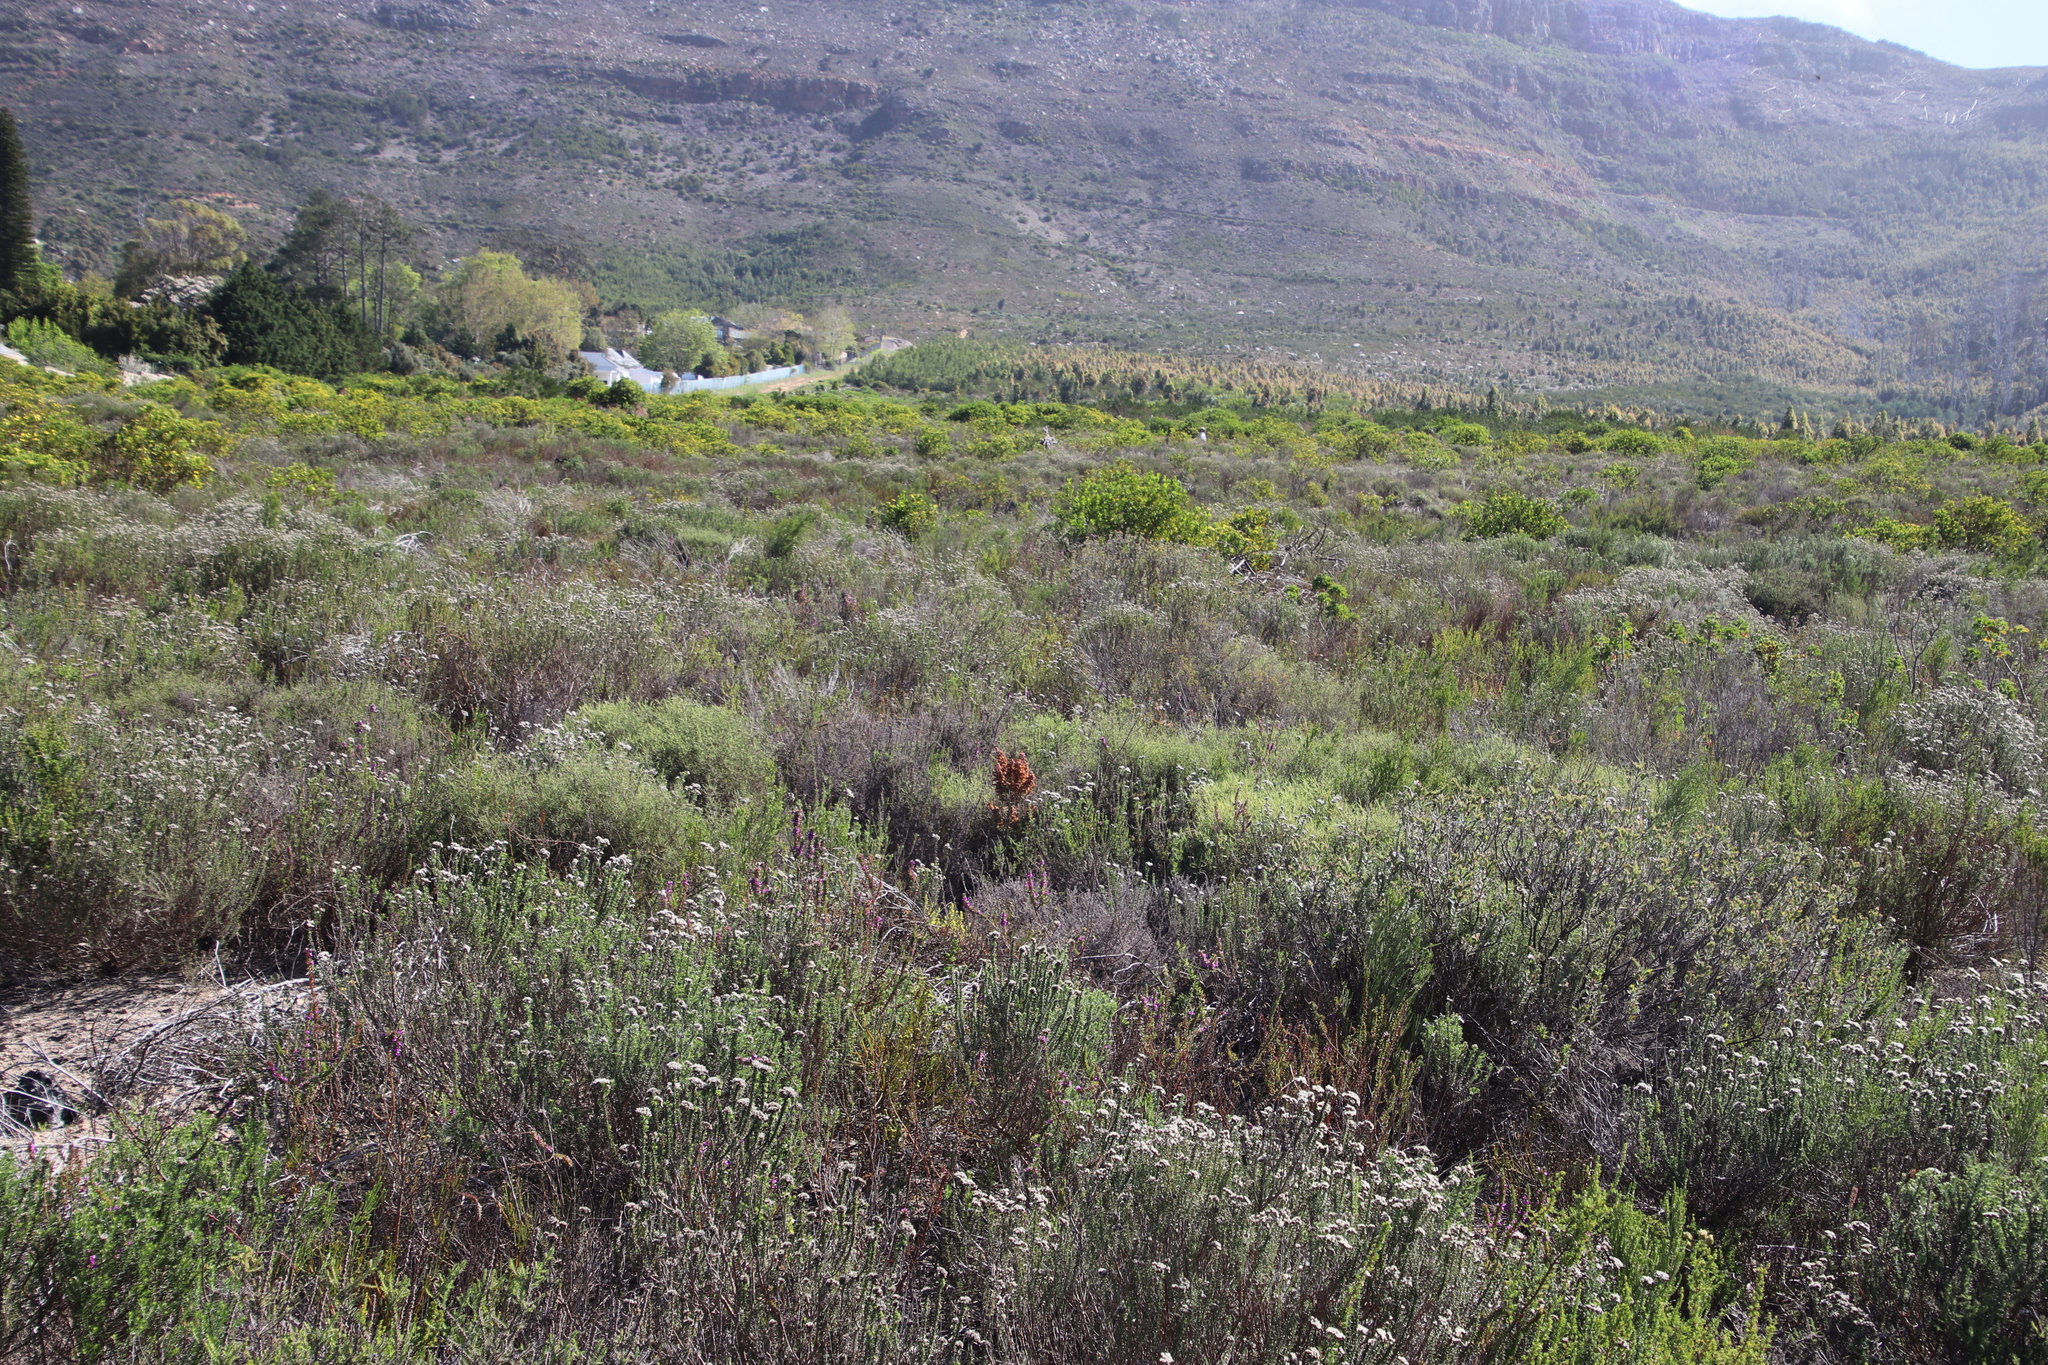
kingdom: Plantae
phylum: Tracheophyta
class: Magnoliopsida
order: Ericales
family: Ericaceae
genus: Erica
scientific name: Erica mauritanica
